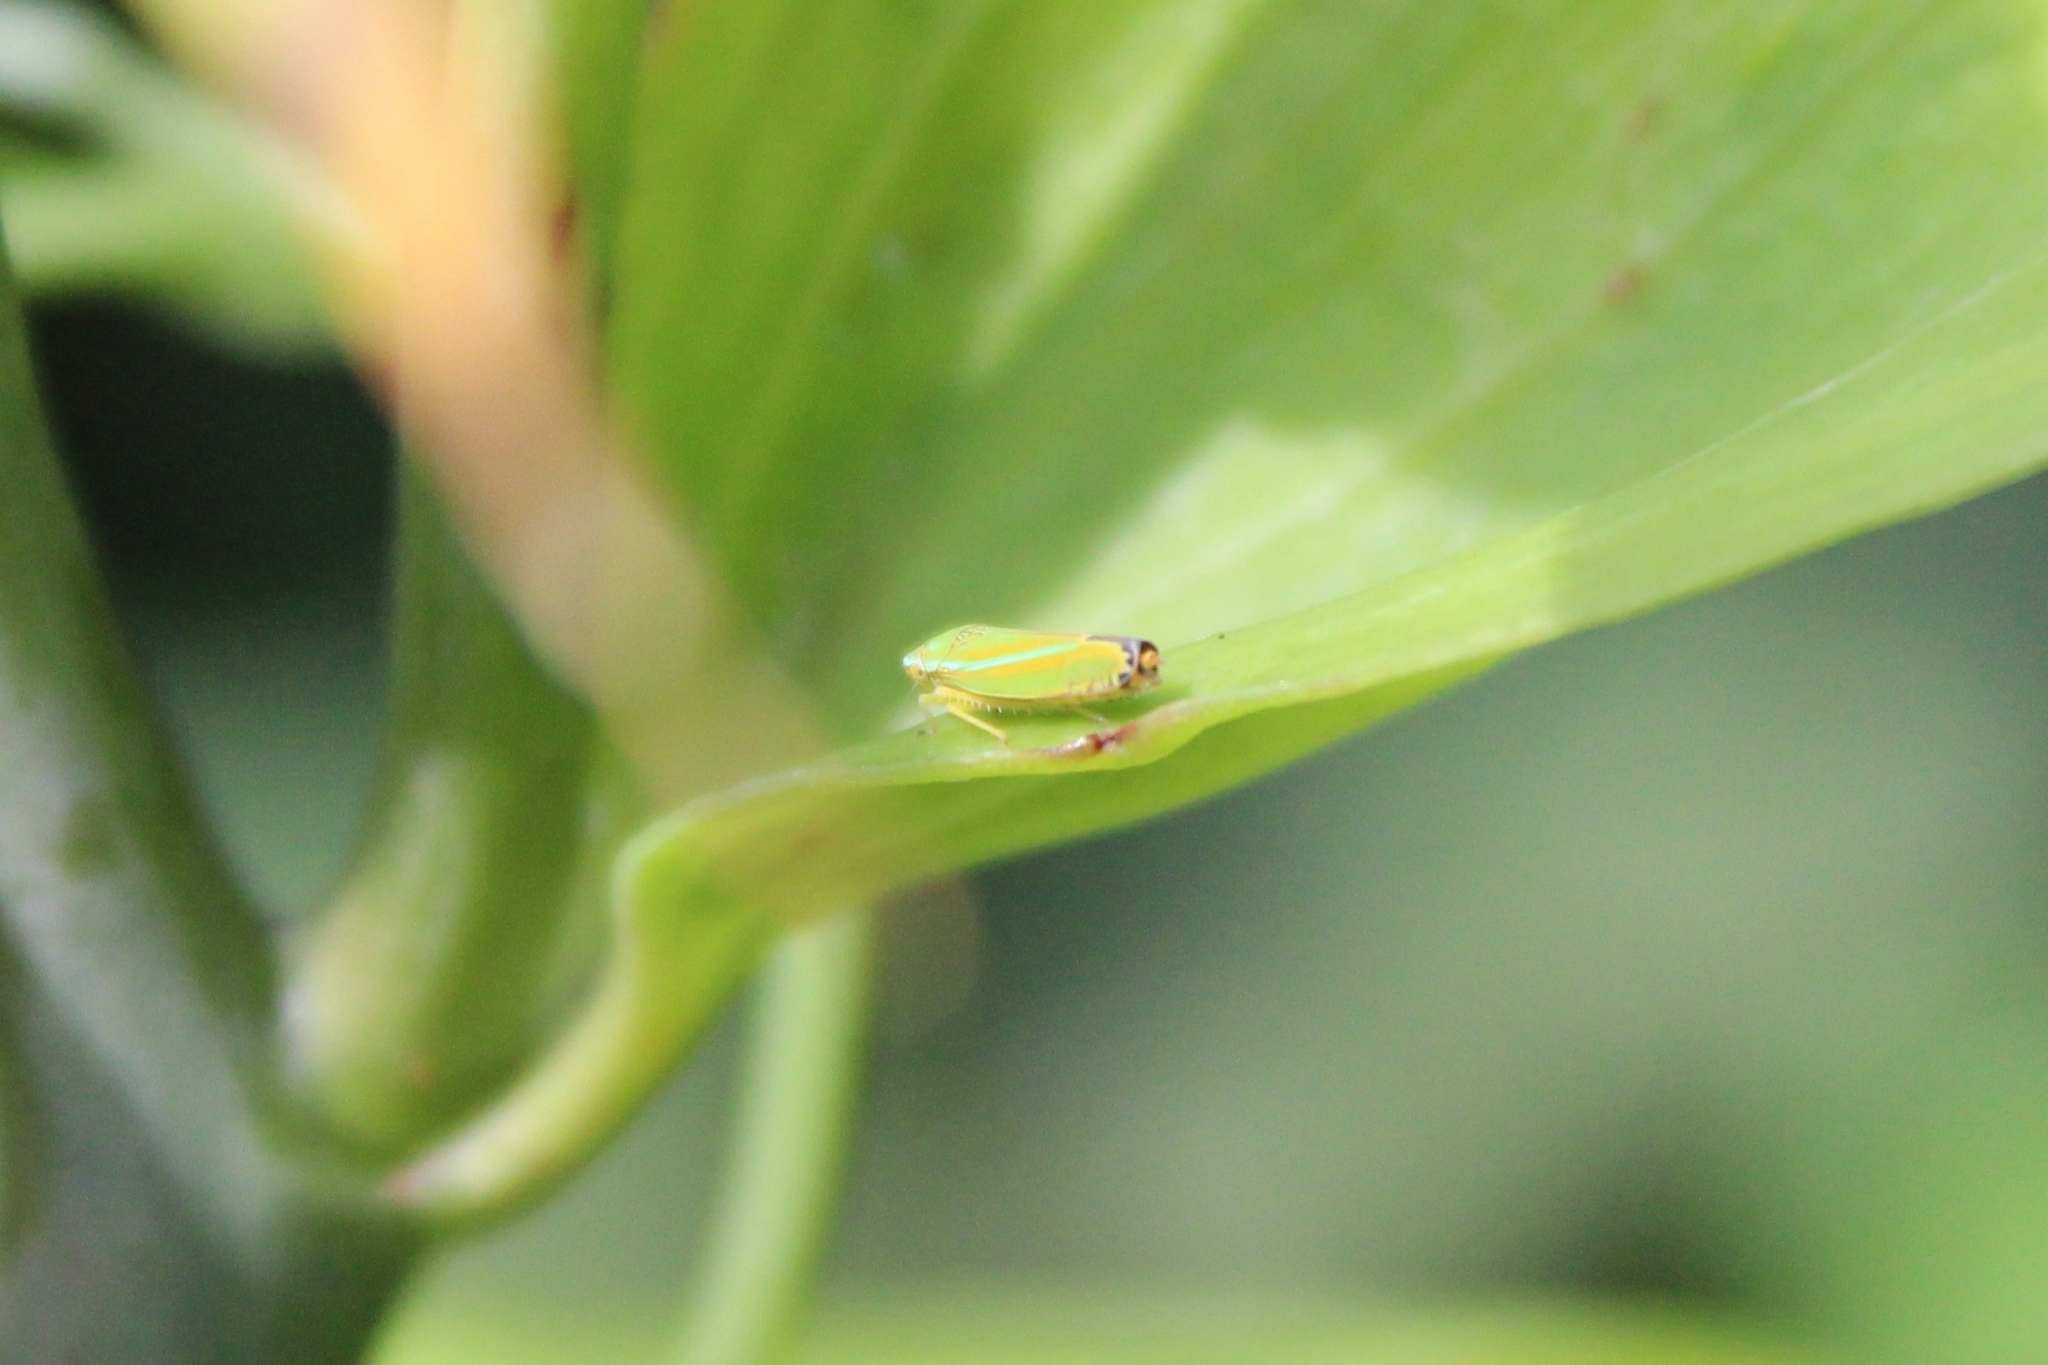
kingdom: Animalia
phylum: Arthropoda
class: Insecta
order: Hemiptera
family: Cicadellidae
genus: Graphocephala
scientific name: Graphocephala versuta
